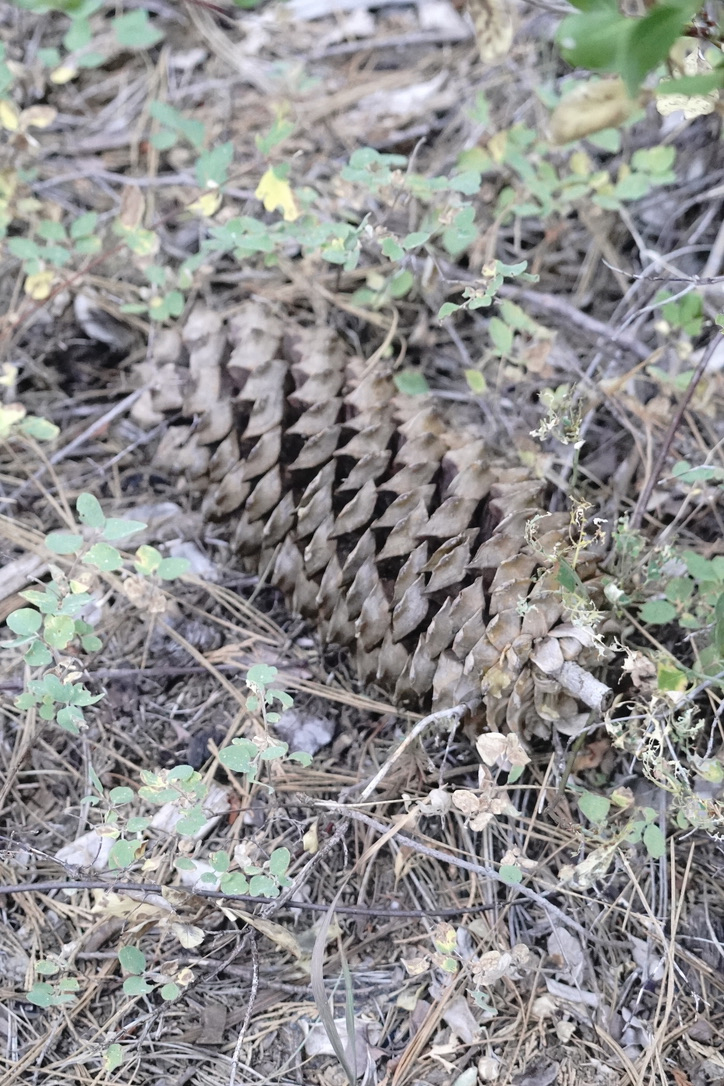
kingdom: Plantae
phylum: Tracheophyta
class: Pinopsida
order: Pinales
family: Pinaceae
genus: Pinus
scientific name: Pinus lambertiana
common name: Sugar pine
